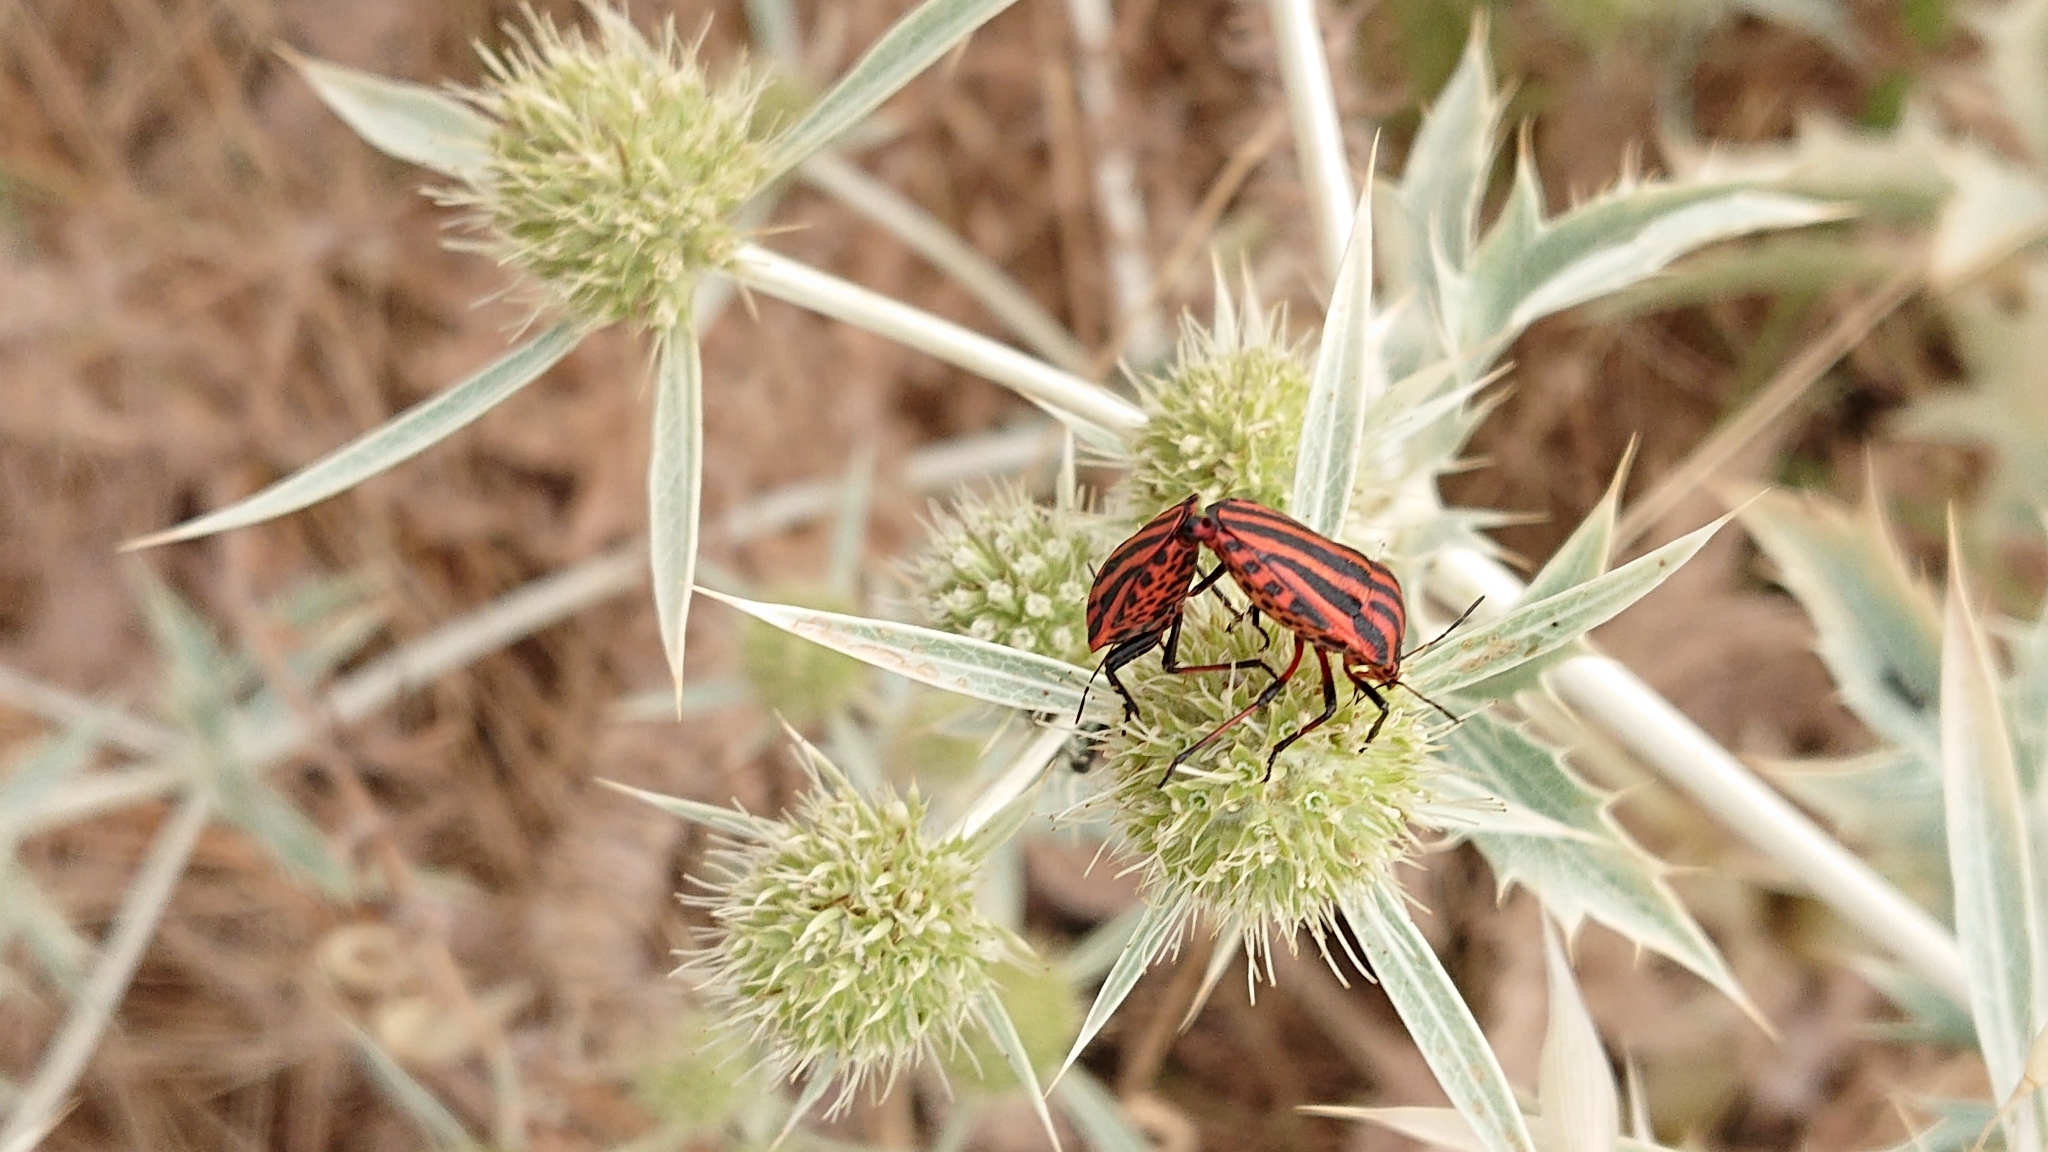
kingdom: Animalia
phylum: Arthropoda
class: Insecta
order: Hemiptera
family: Pentatomidae
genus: Graphosoma
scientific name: Graphosoma italicum
